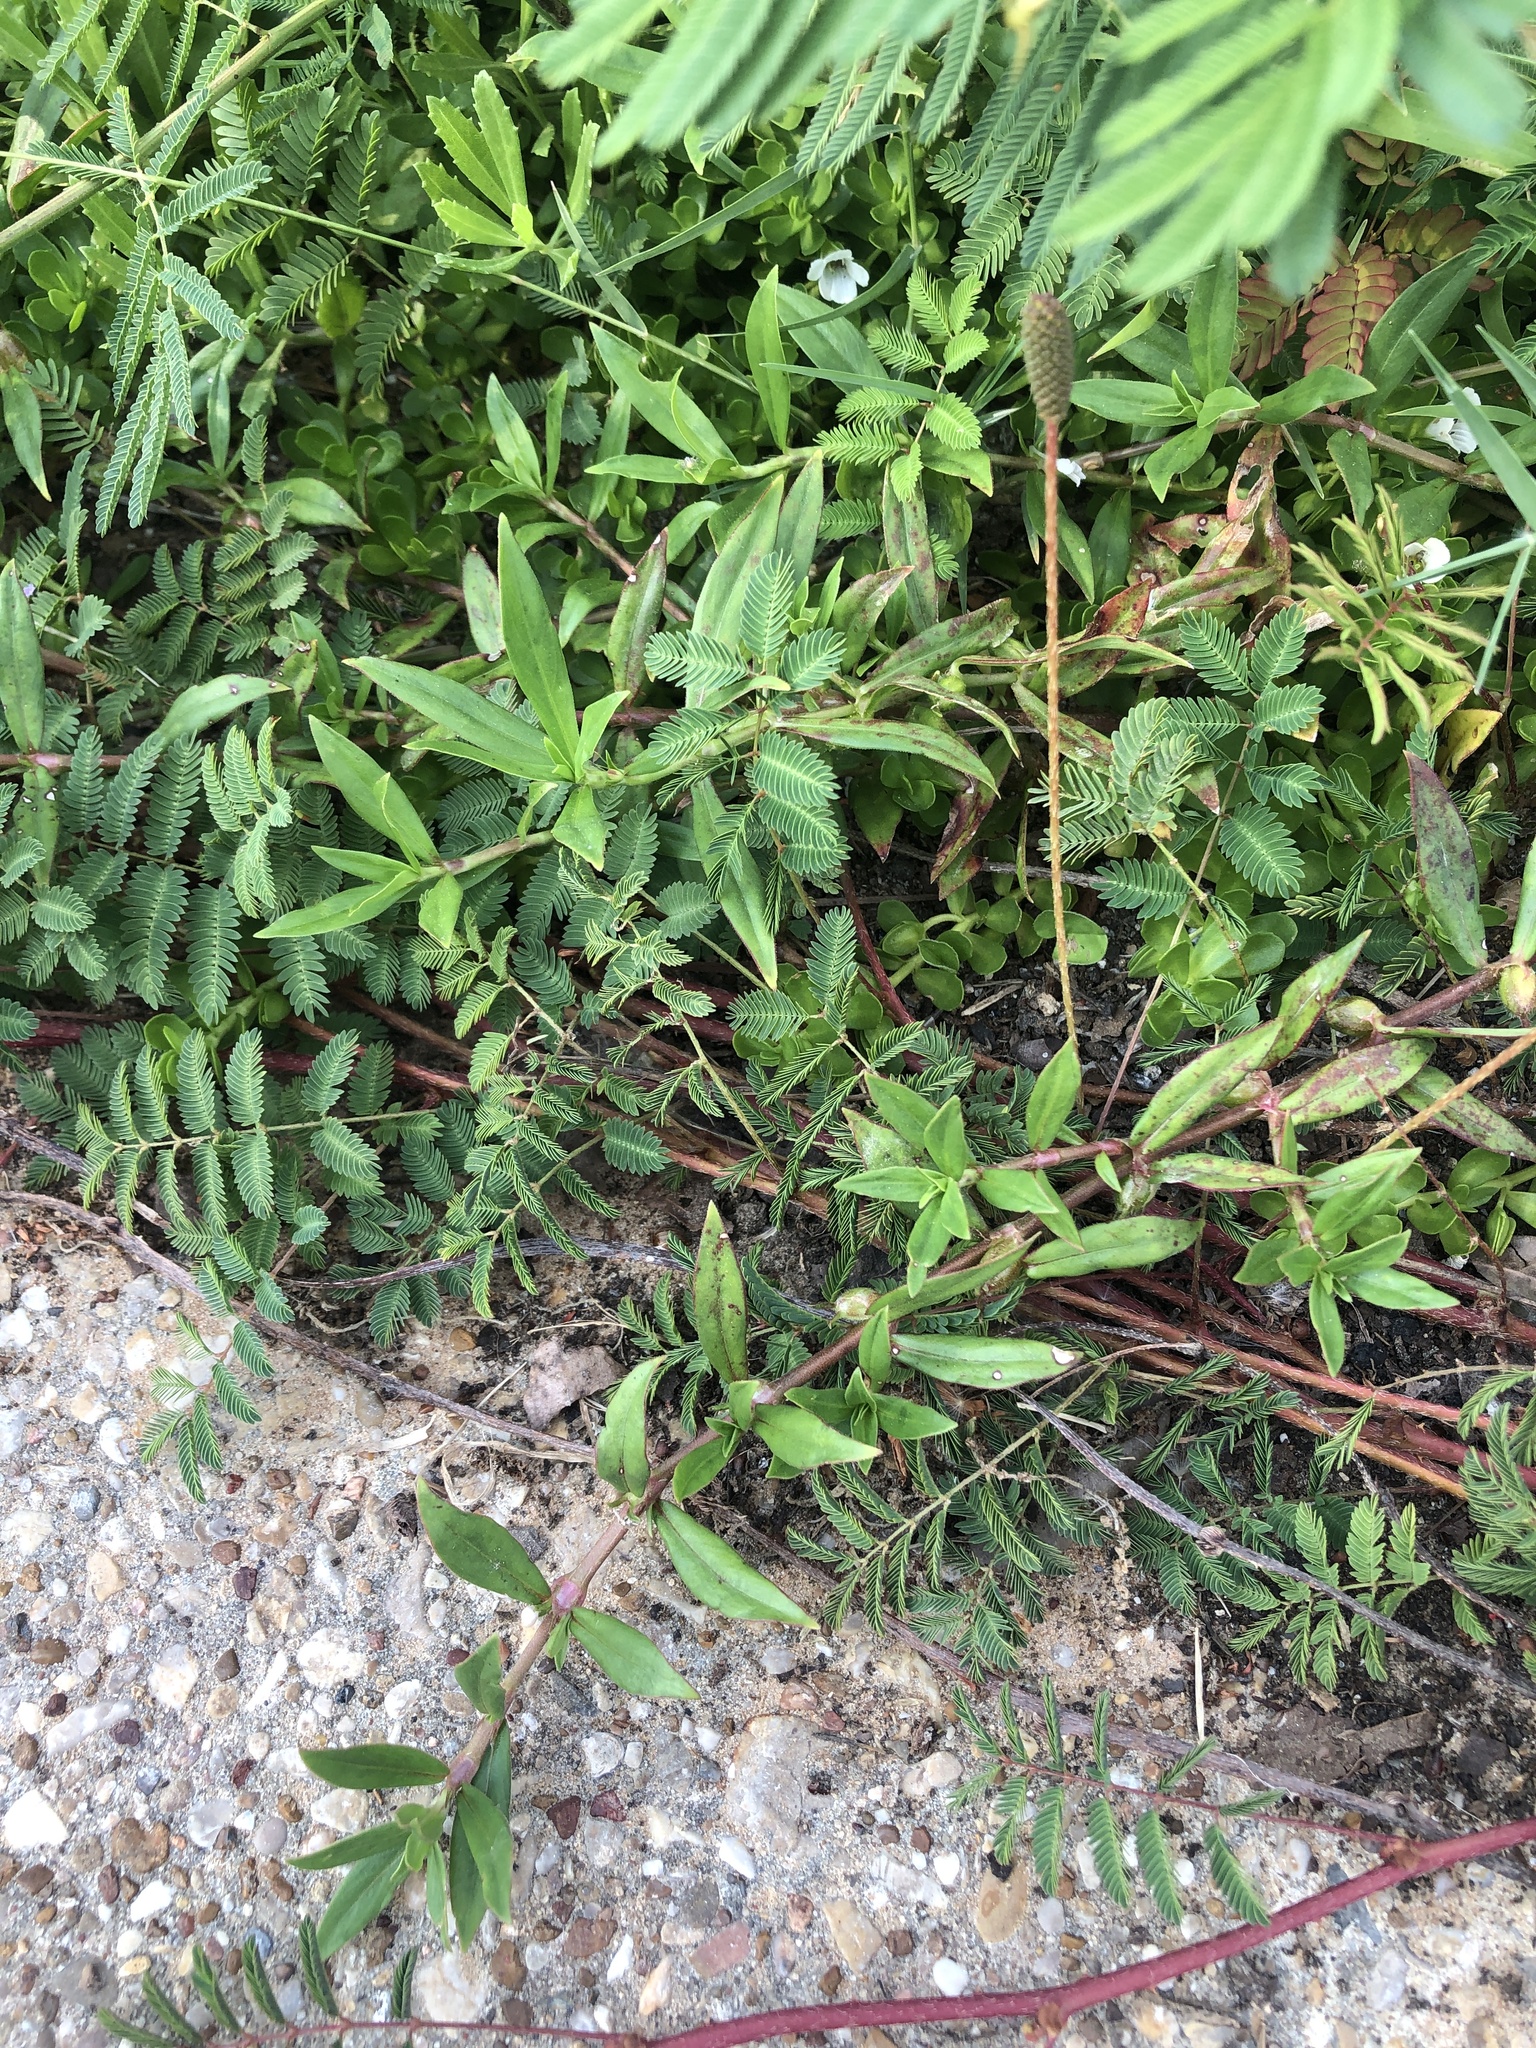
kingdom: Plantae
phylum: Tracheophyta
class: Magnoliopsida
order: Gentianales
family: Rubiaceae
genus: Diodia
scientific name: Diodia virginiana
